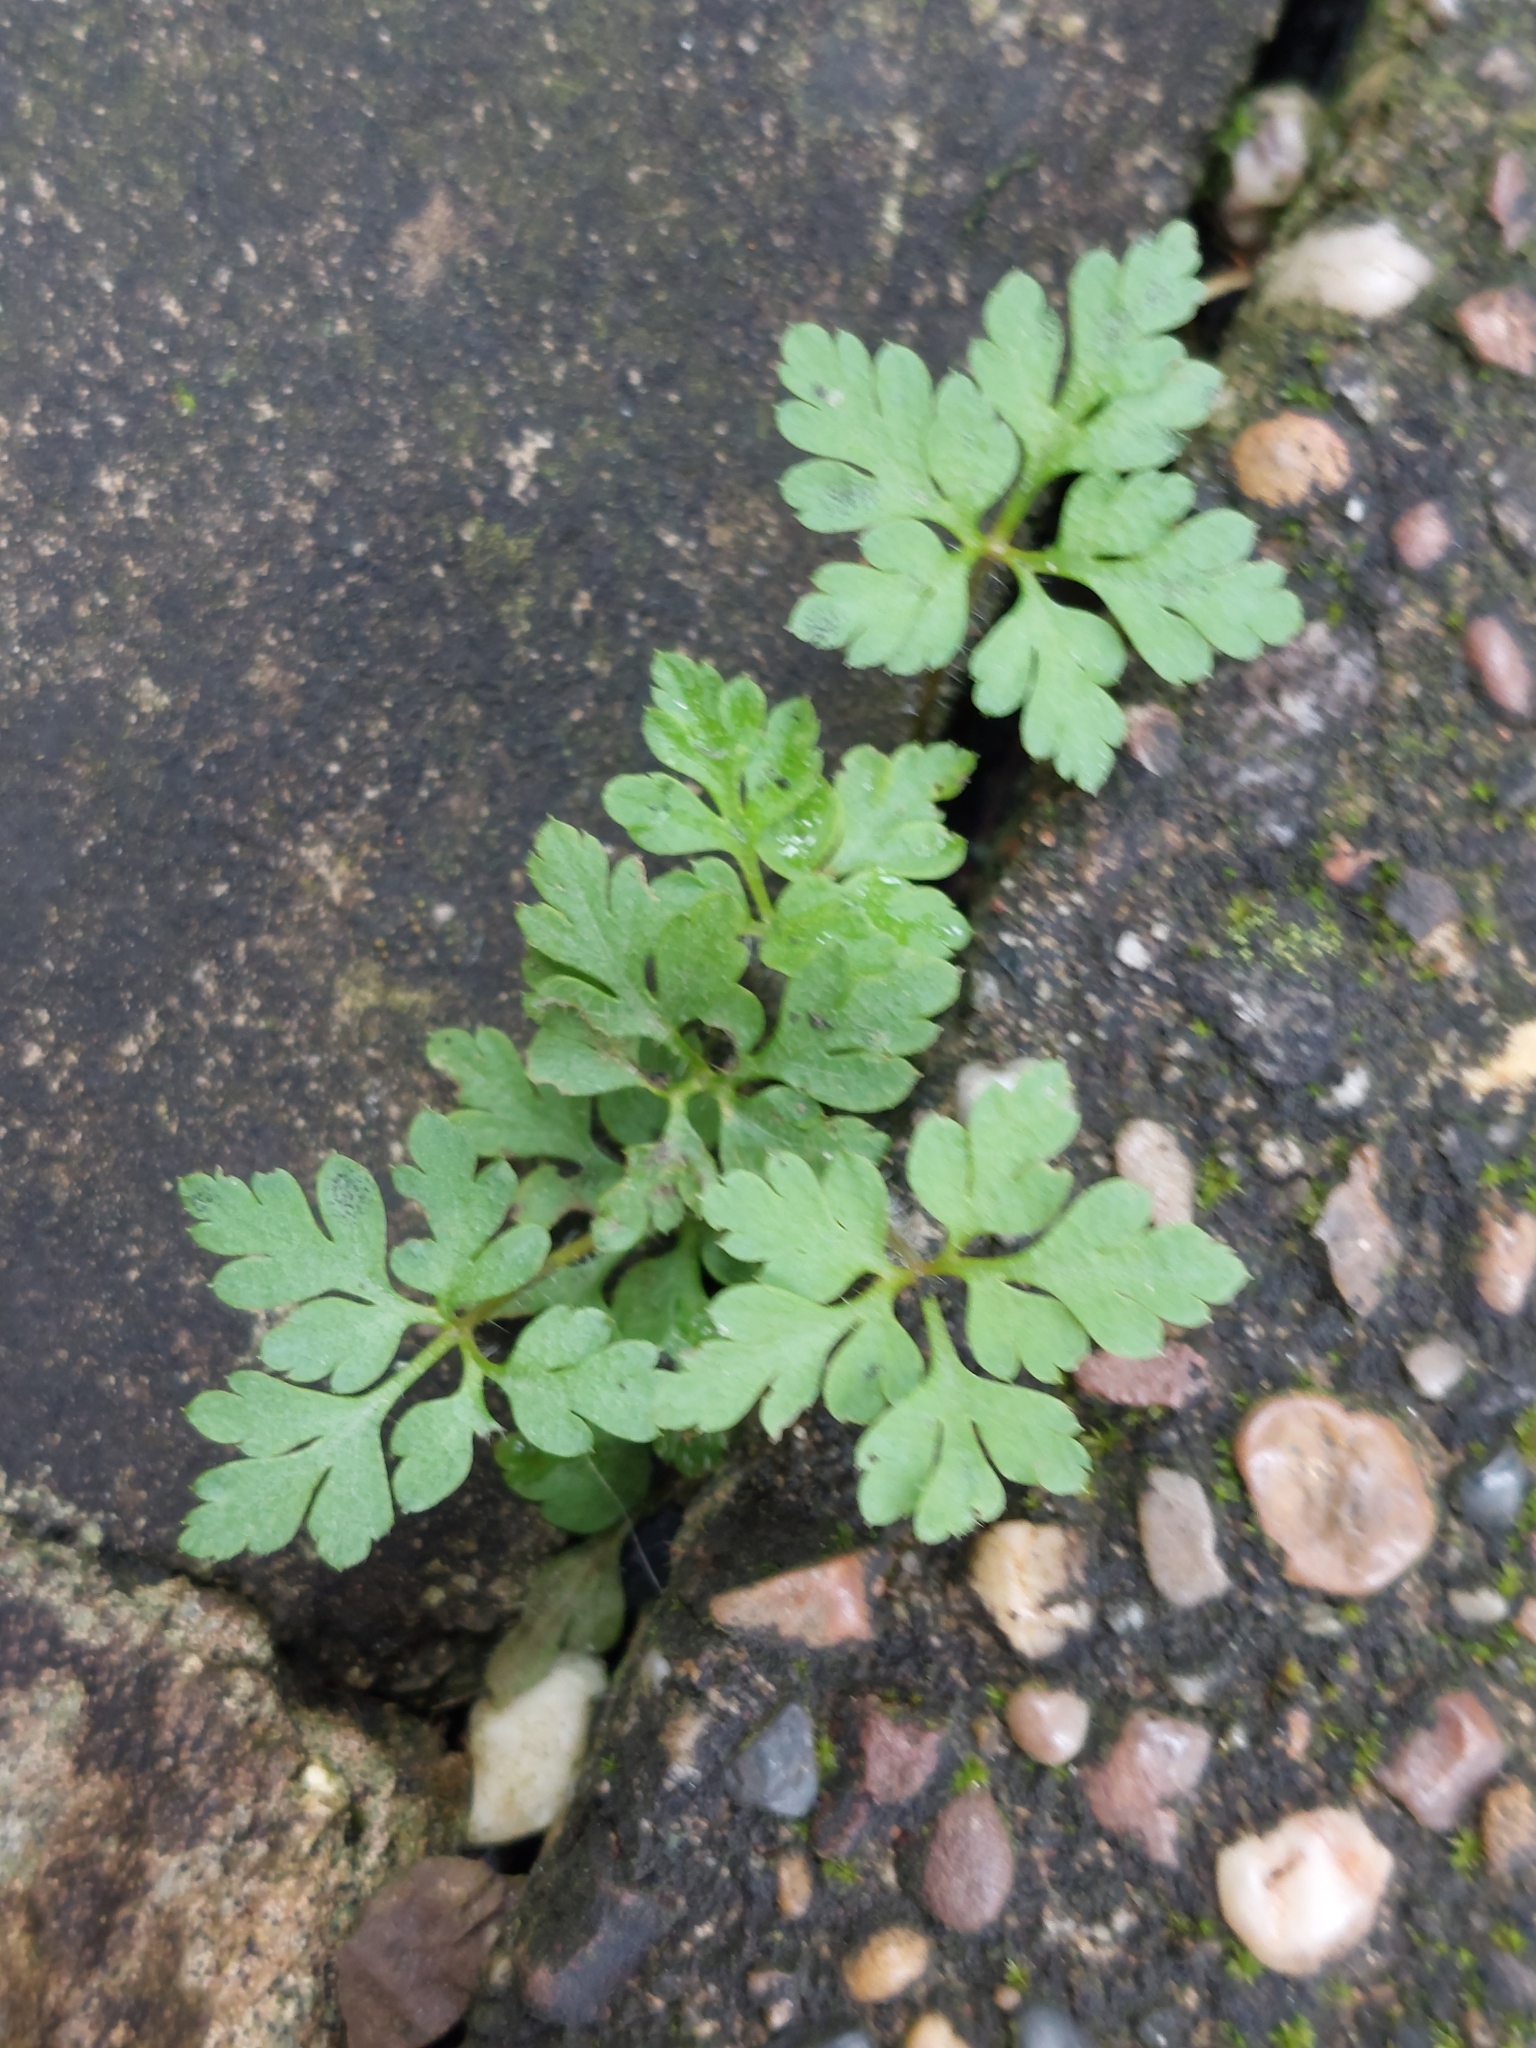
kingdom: Plantae
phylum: Tracheophyta
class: Magnoliopsida
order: Geraniales
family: Geraniaceae
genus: Geranium
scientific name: Geranium robertianum
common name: Herb-robert
